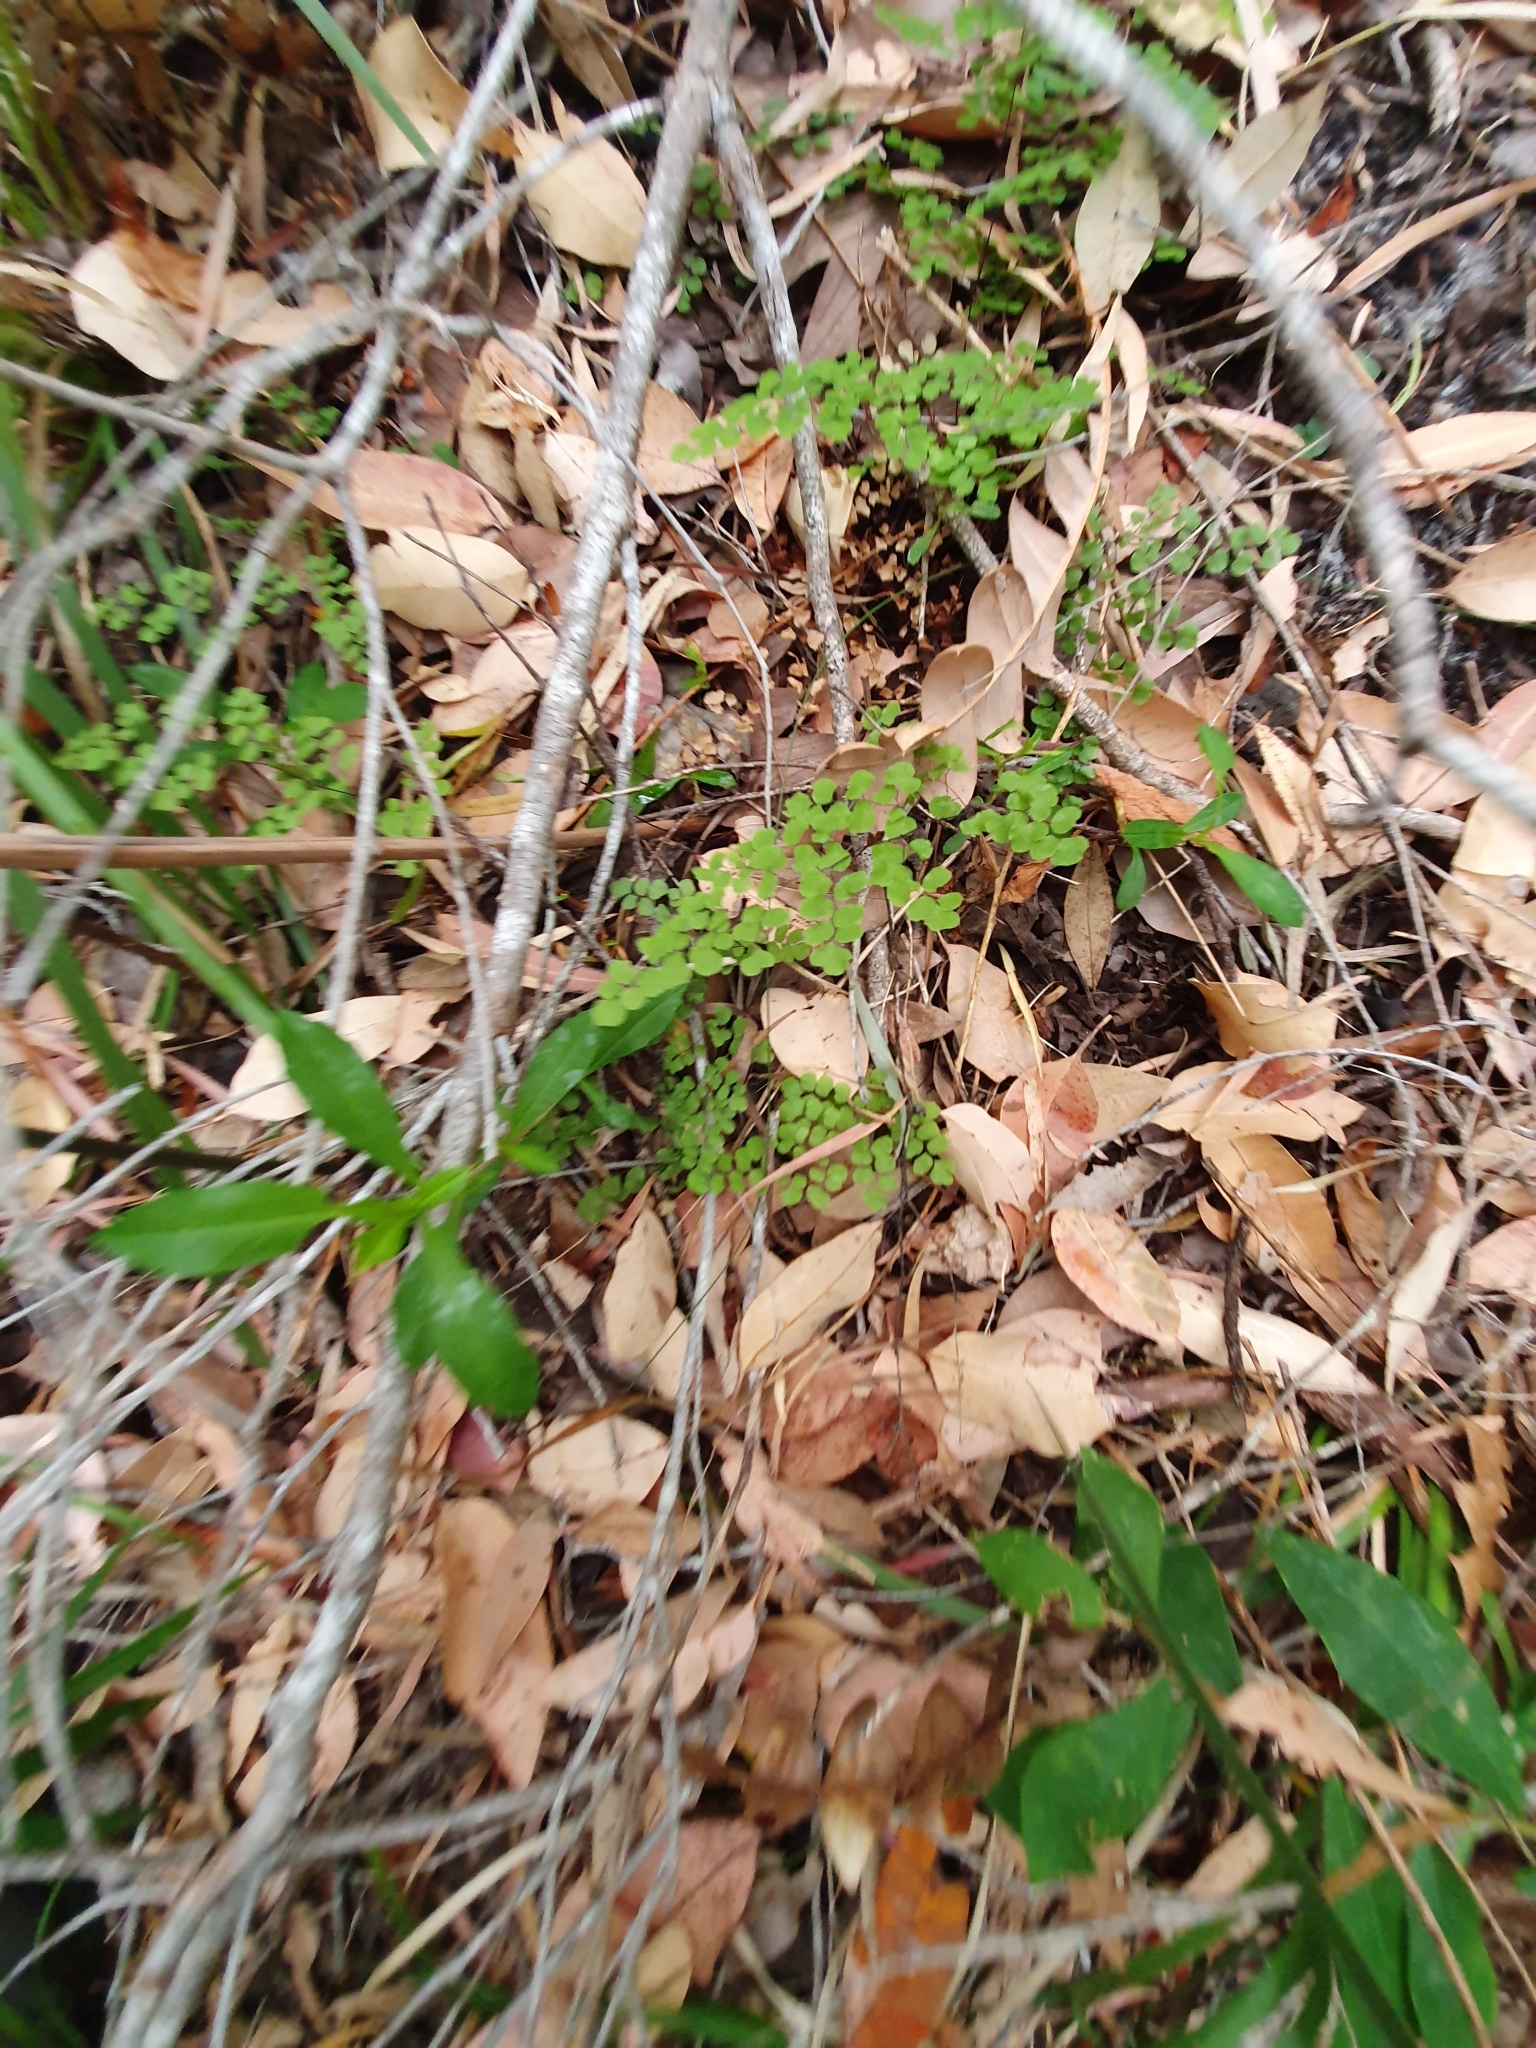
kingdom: Plantae
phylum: Tracheophyta
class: Polypodiopsida
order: Polypodiales
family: Pteridaceae
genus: Adiantum
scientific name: Adiantum aethiopicum
